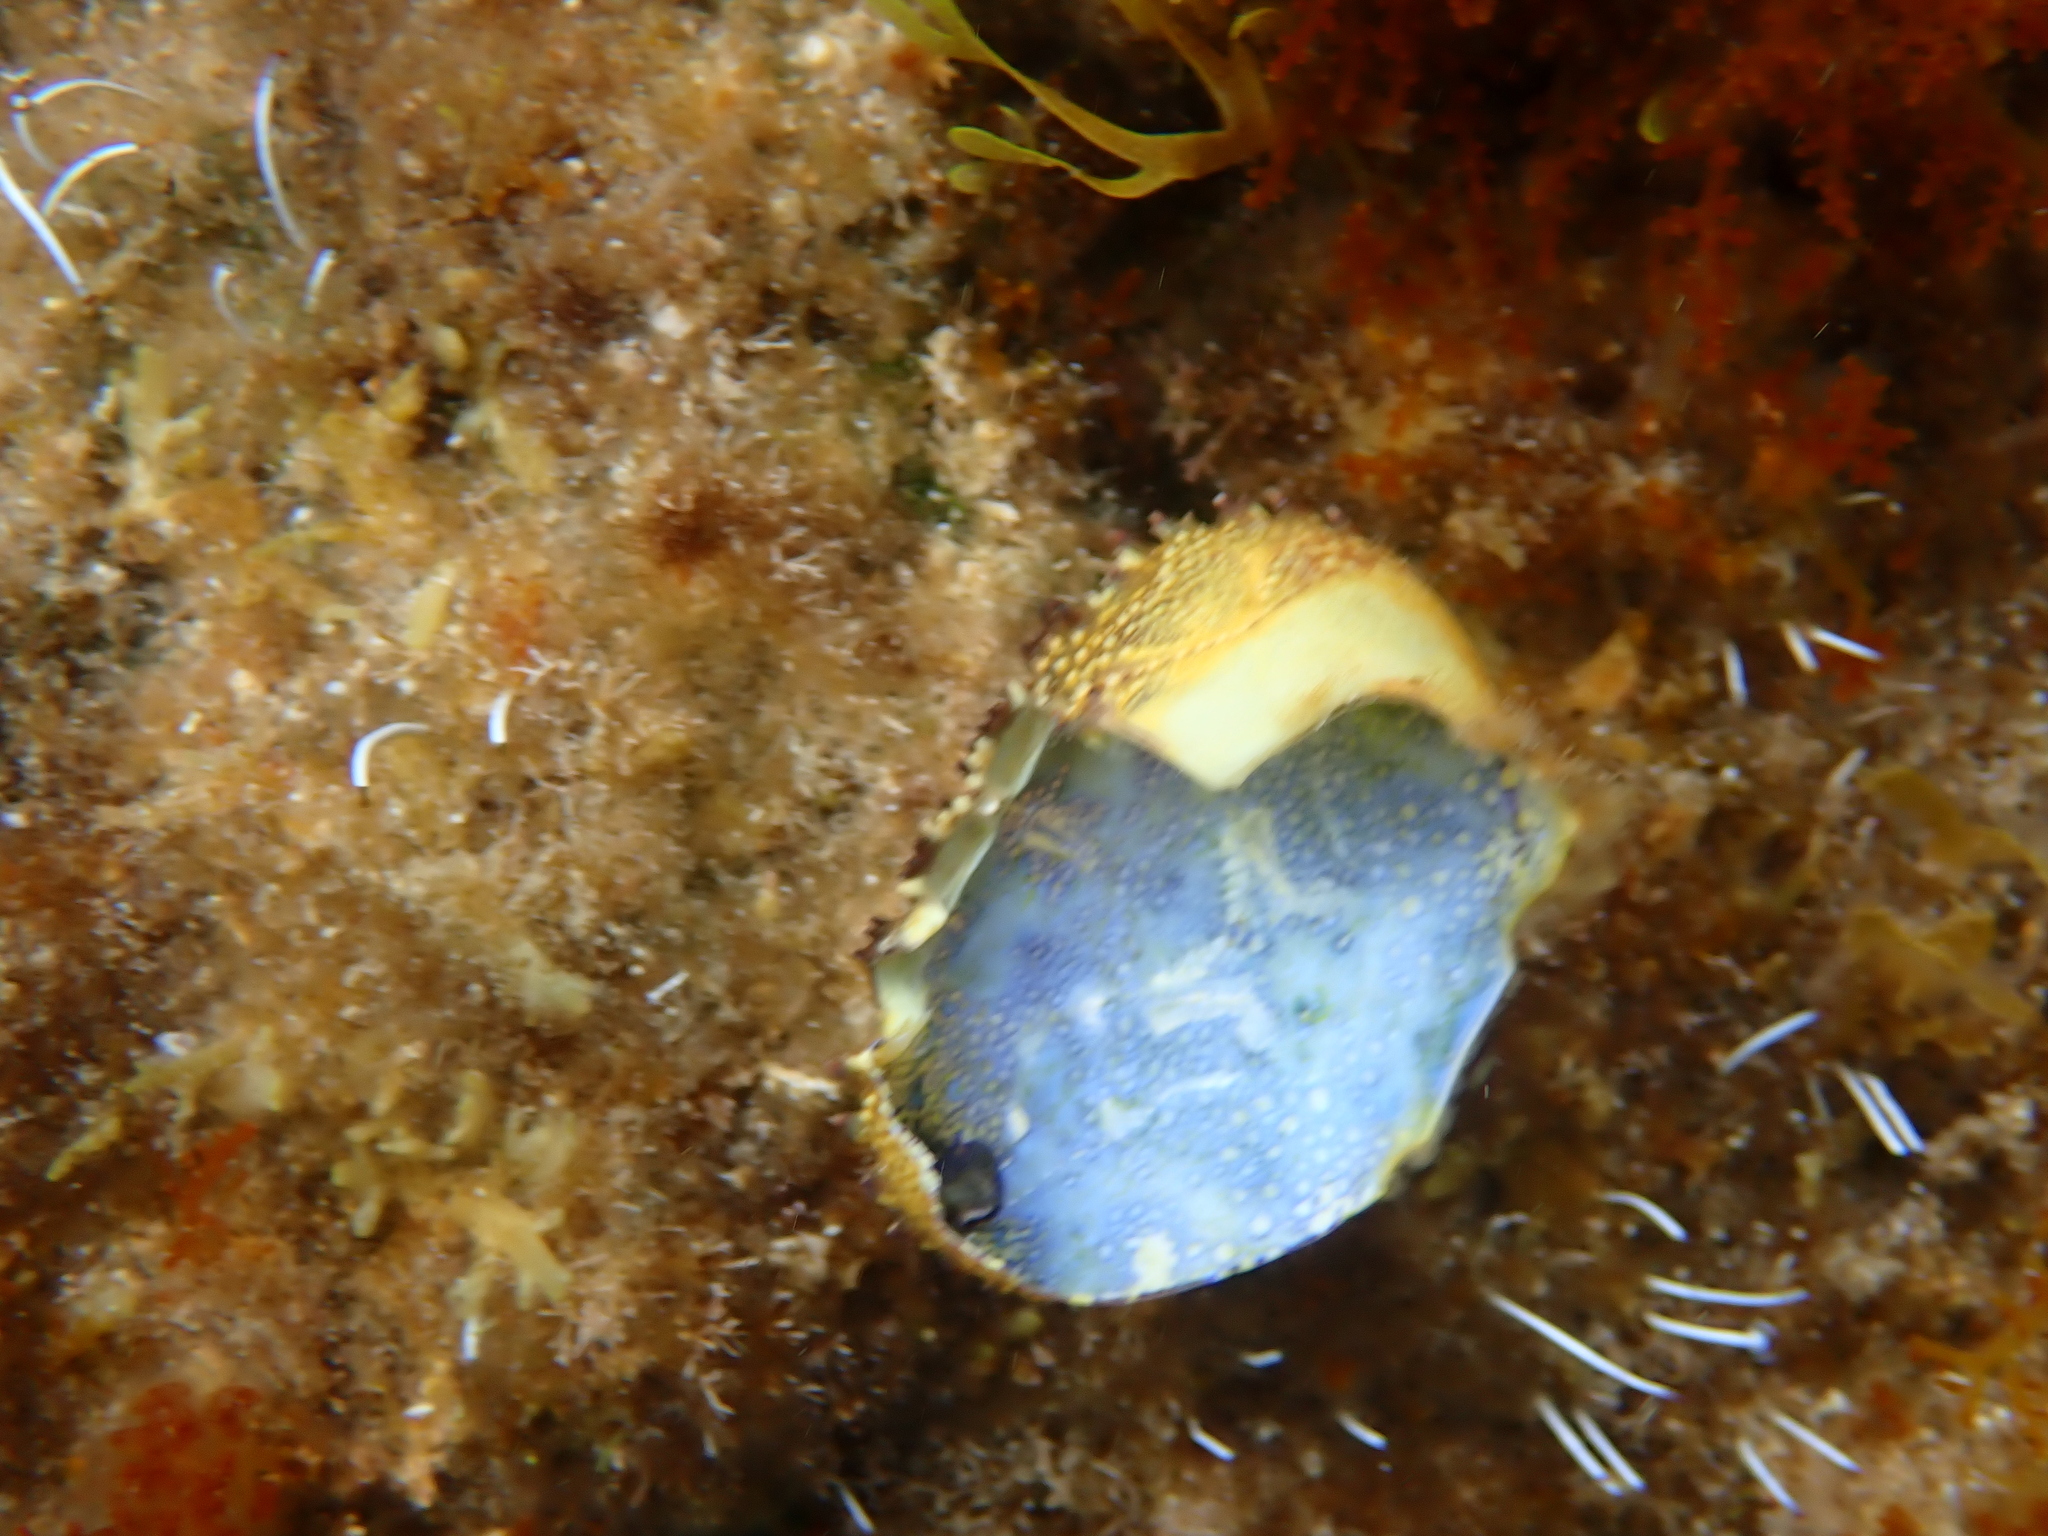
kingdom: Animalia
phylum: Arthropoda
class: Malacostraca
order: Decapoda
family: Eriphiidae
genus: Eriphia
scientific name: Eriphia verrucosa
